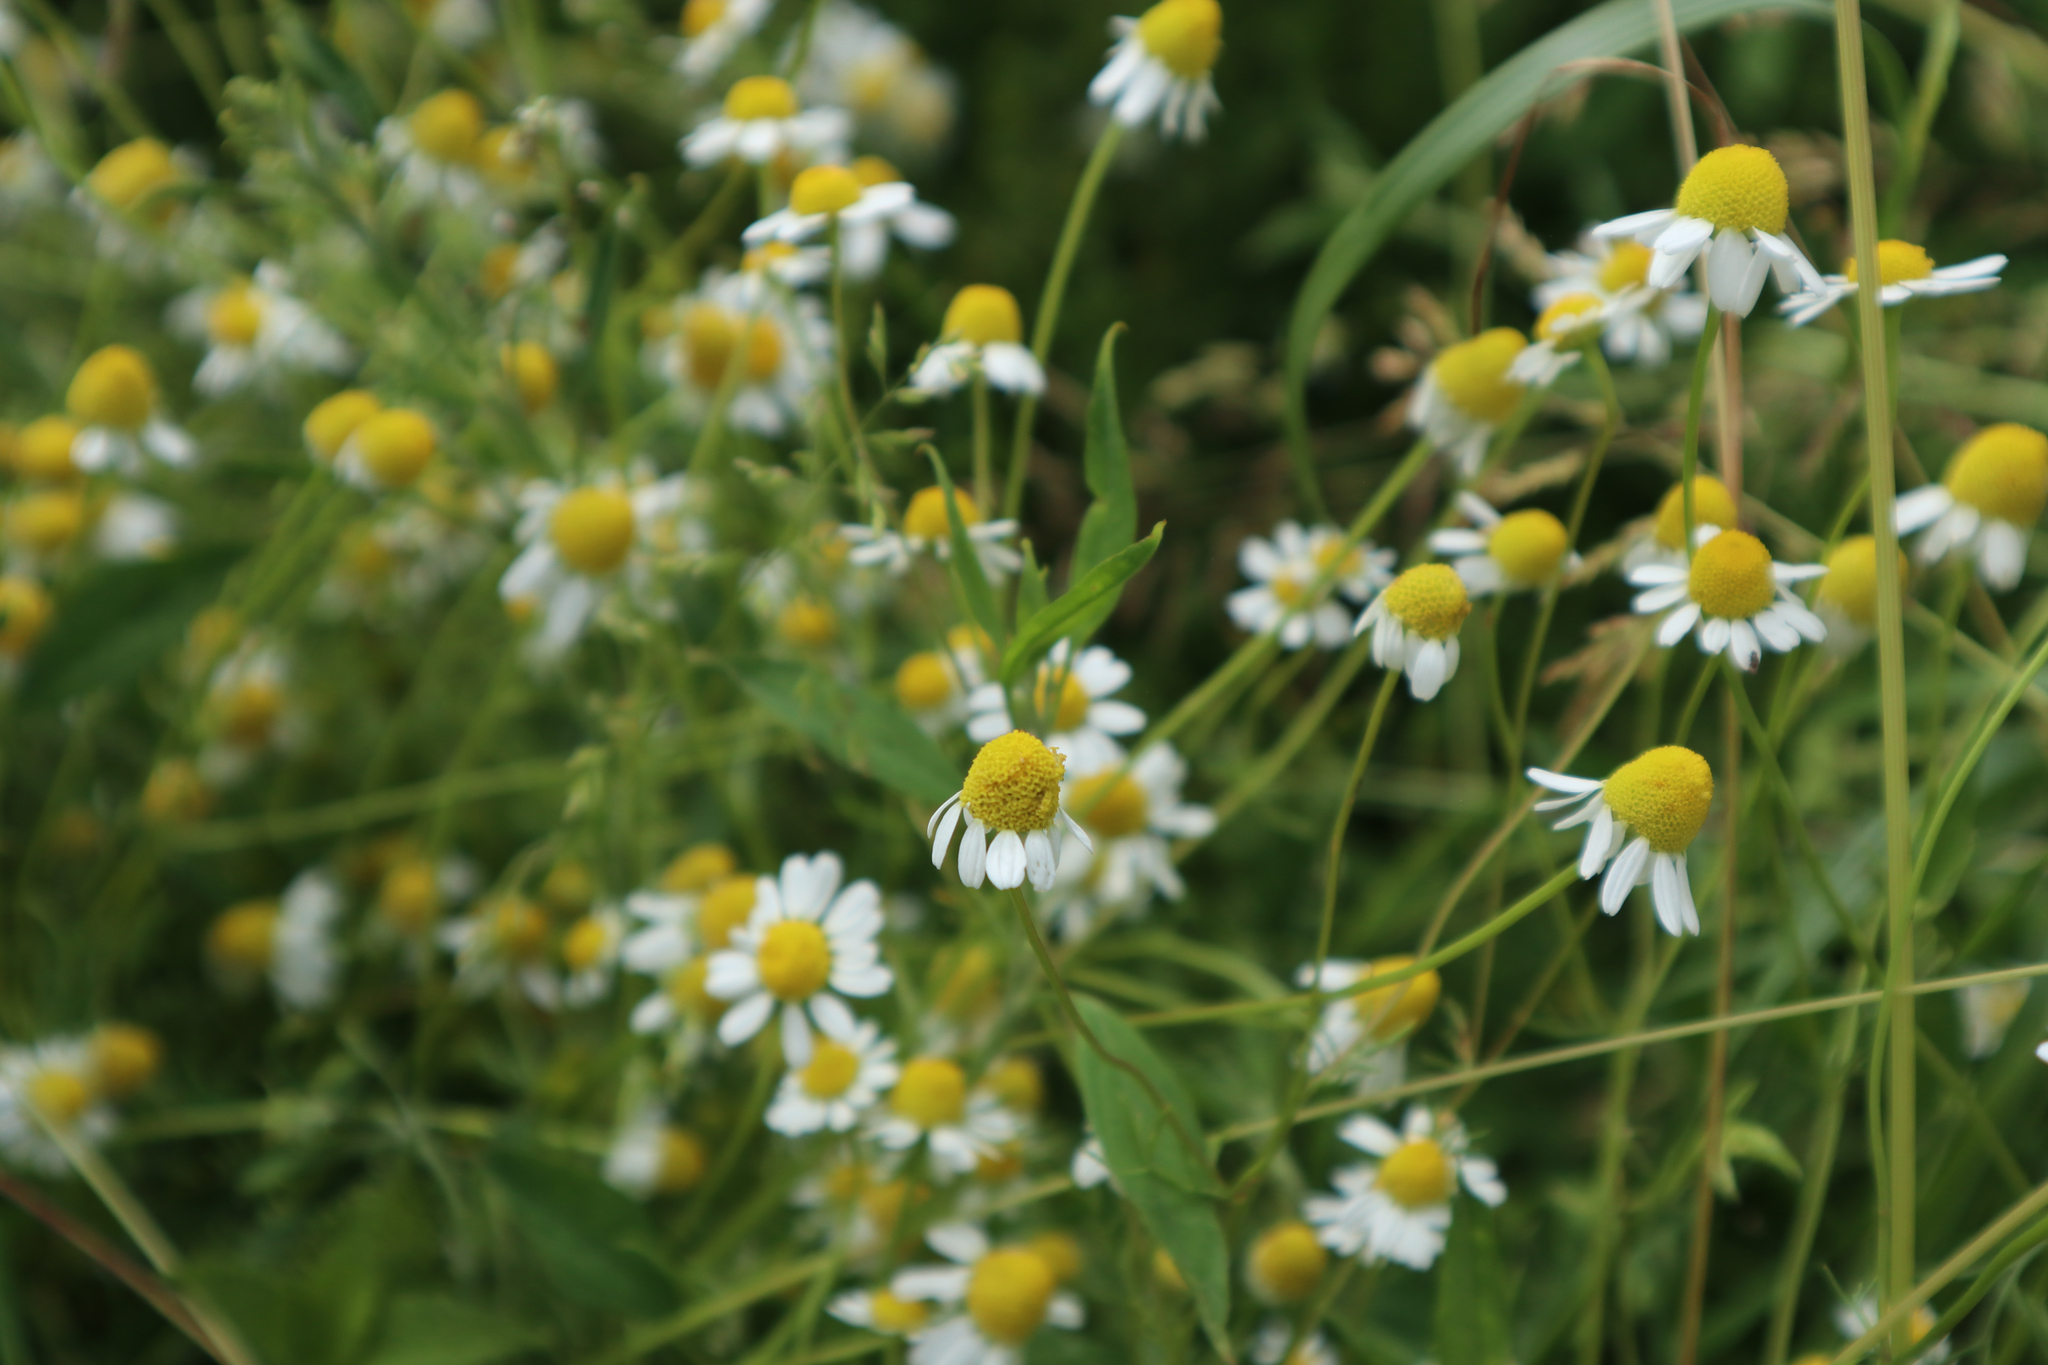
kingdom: Plantae
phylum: Tracheophyta
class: Magnoliopsida
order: Asterales
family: Asteraceae
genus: Matricaria
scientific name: Matricaria chamomilla
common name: Scented mayweed
